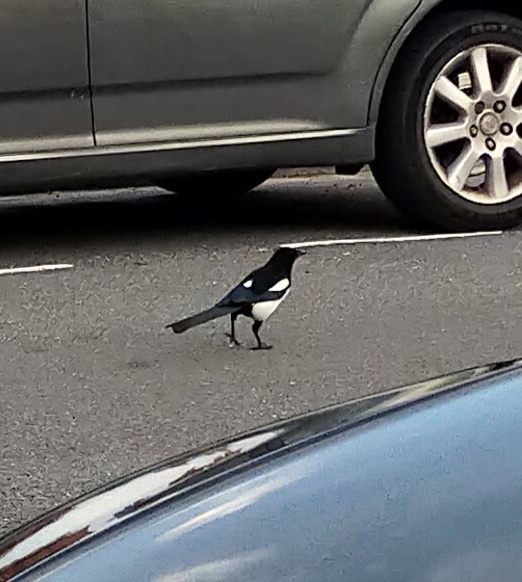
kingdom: Animalia
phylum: Chordata
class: Aves
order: Passeriformes
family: Corvidae
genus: Pica
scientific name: Pica pica
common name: Eurasian magpie
